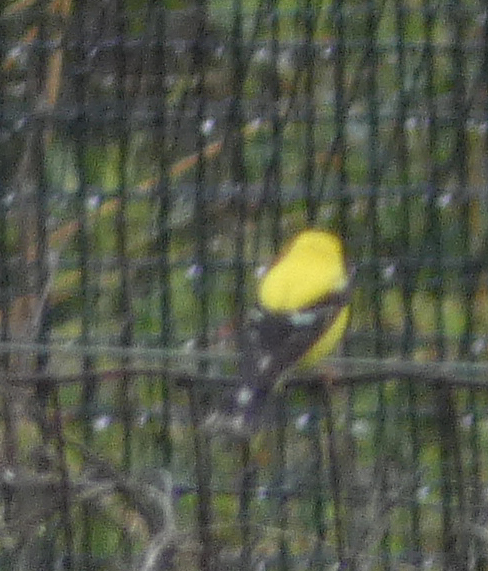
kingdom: Animalia
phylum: Chordata
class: Aves
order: Passeriformes
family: Fringillidae
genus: Spinus
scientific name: Spinus tristis
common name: American goldfinch
